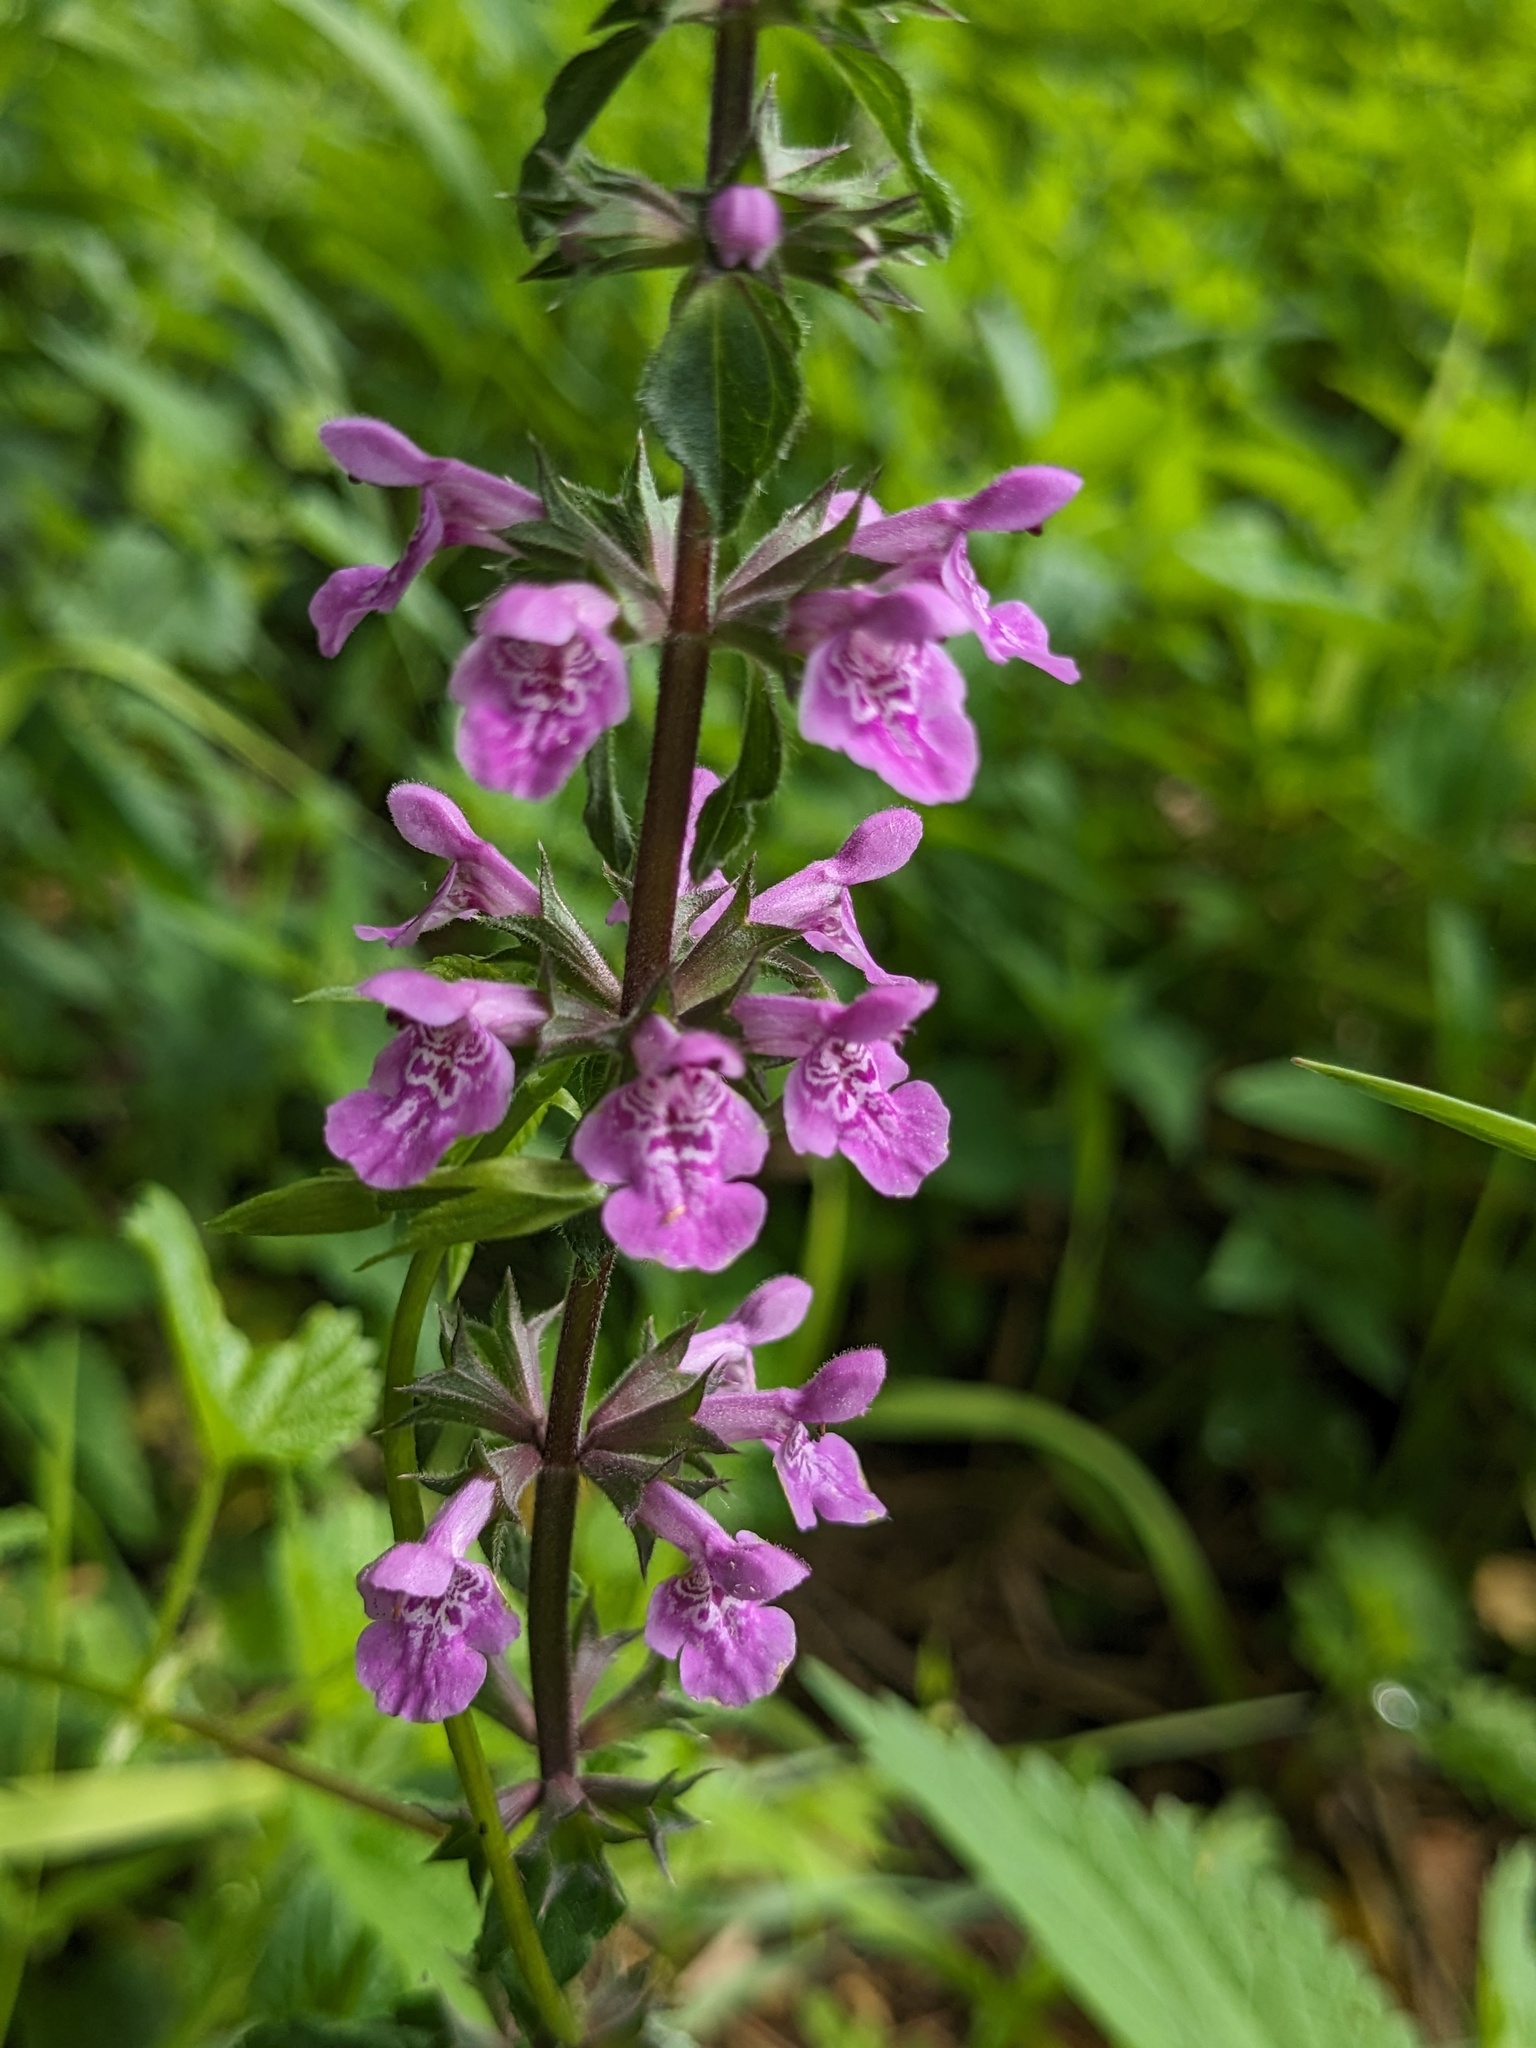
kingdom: Plantae
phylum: Tracheophyta
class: Magnoliopsida
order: Lamiales
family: Lamiaceae
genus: Stachys
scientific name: Stachys palustris
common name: Marsh woundwort
